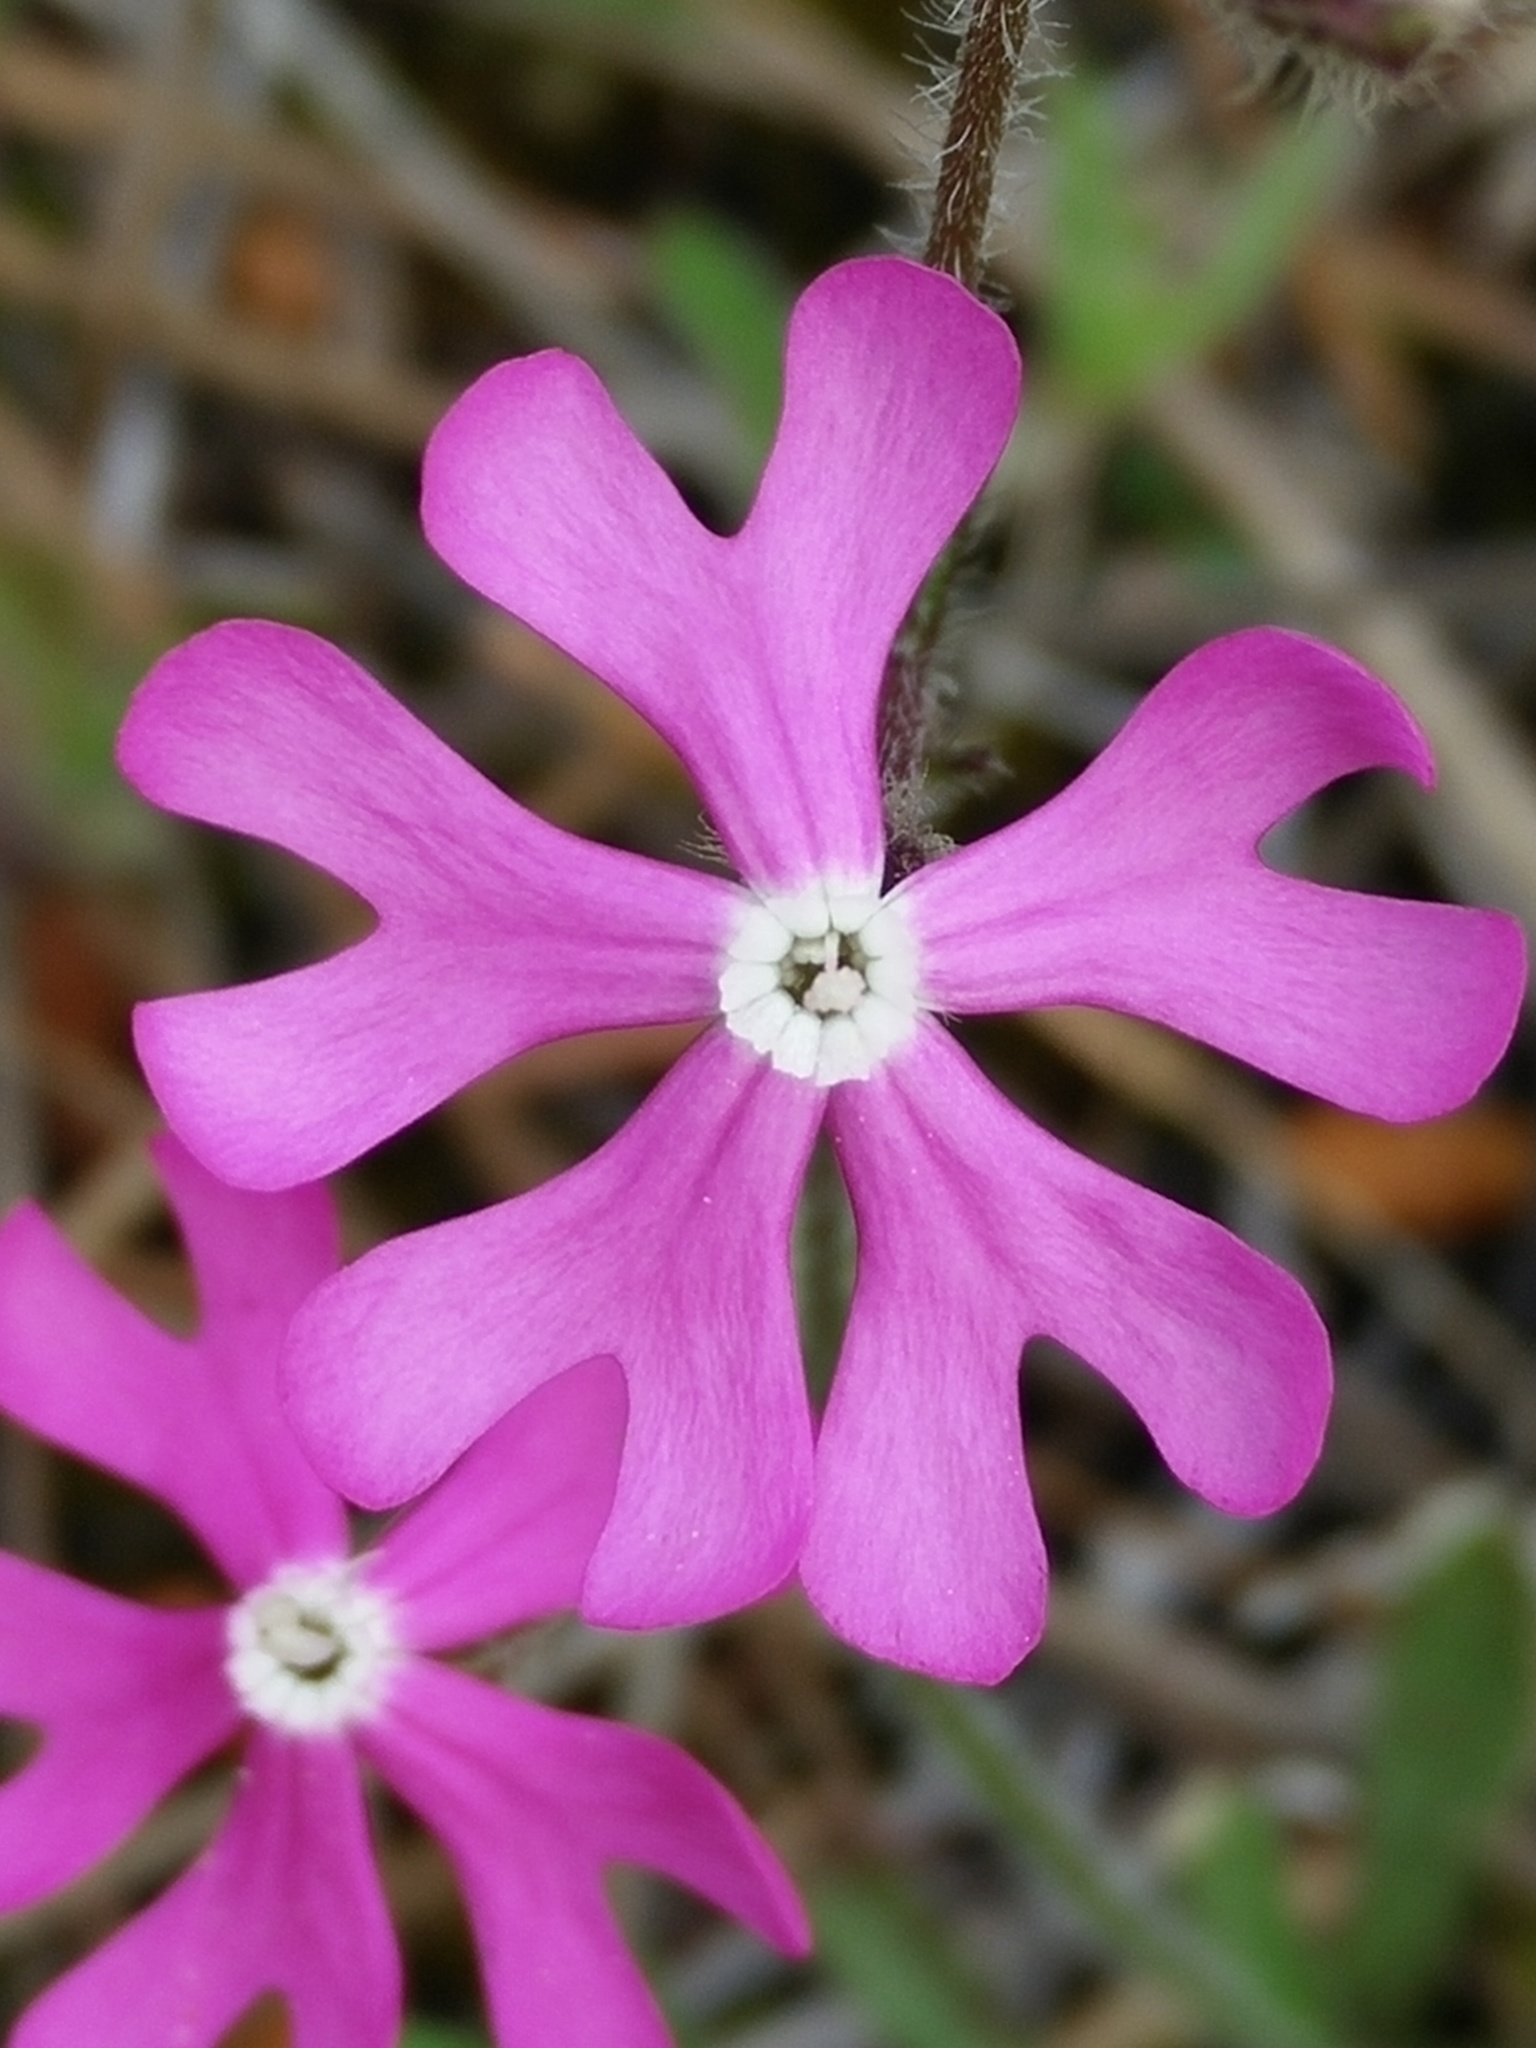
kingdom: Plantae
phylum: Tracheophyta
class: Magnoliopsida
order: Caryophyllales
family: Caryophyllaceae
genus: Silene
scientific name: Silene scabriflora
